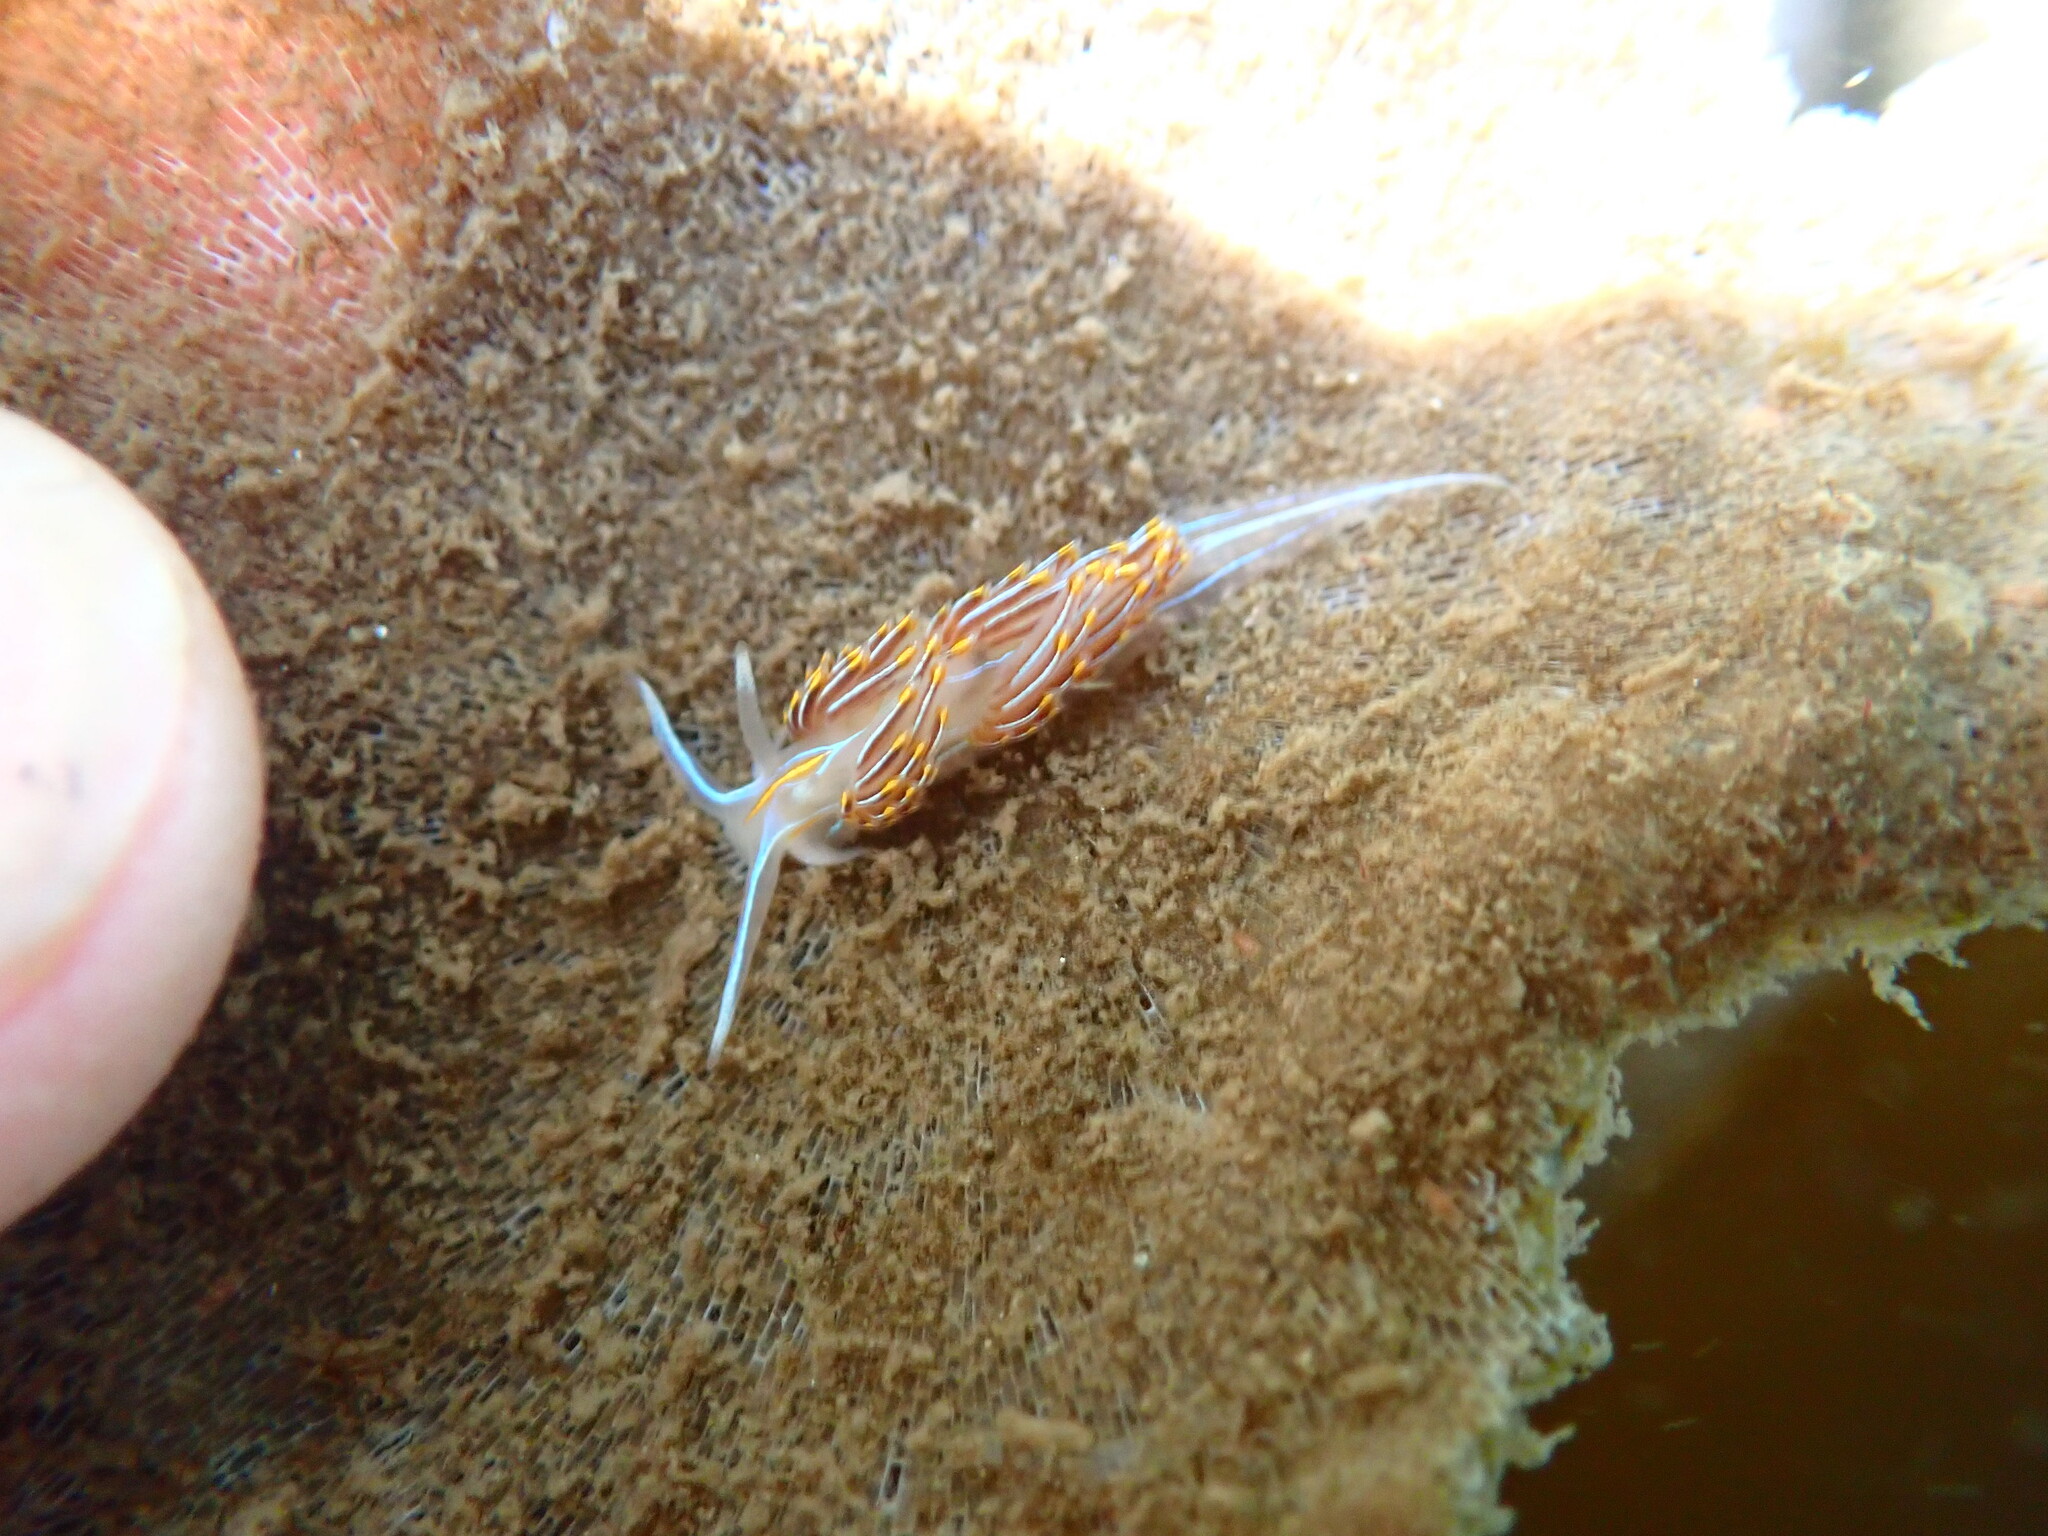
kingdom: Animalia
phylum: Mollusca
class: Gastropoda
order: Nudibranchia
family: Myrrhinidae
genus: Hermissenda
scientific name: Hermissenda crassicornis
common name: Hermissenda
